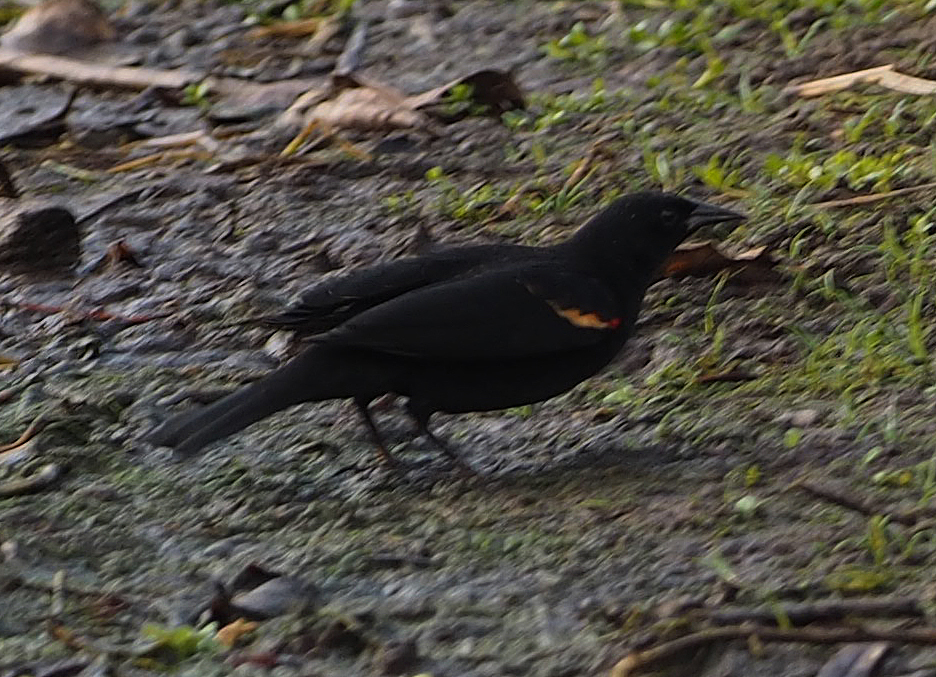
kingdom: Animalia
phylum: Chordata
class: Aves
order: Passeriformes
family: Icteridae
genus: Agelaius
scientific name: Agelaius phoeniceus
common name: Red-winged blackbird
